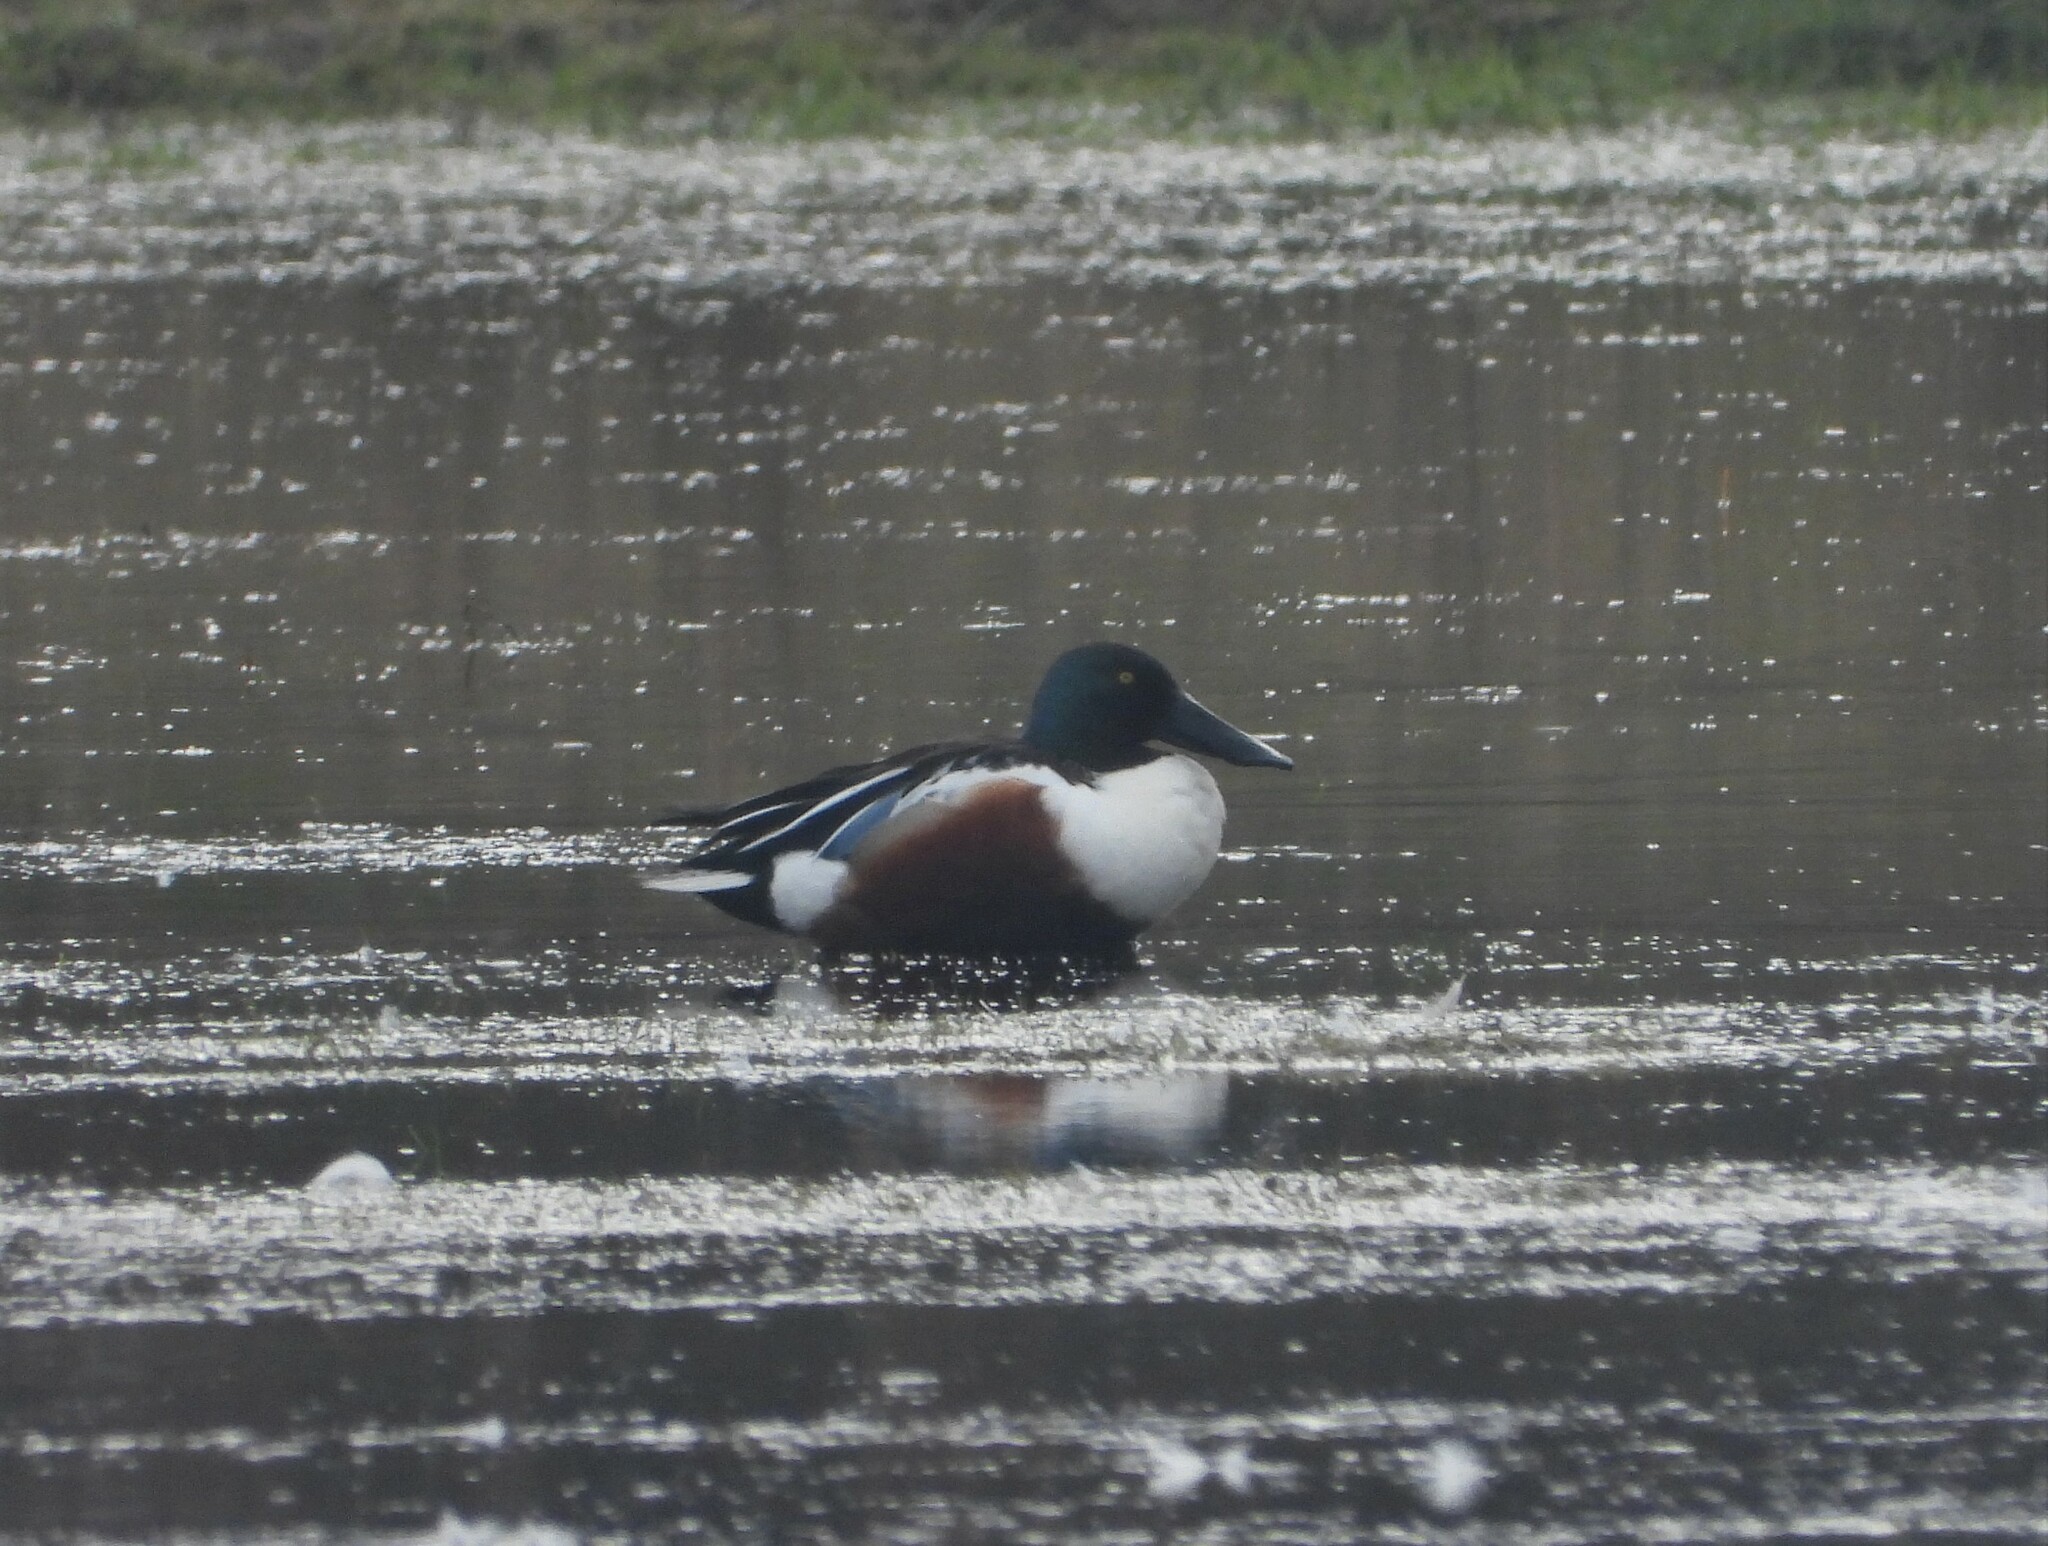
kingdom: Animalia
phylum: Chordata
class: Aves
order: Anseriformes
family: Anatidae
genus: Spatula
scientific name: Spatula clypeata
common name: Northern shoveler
